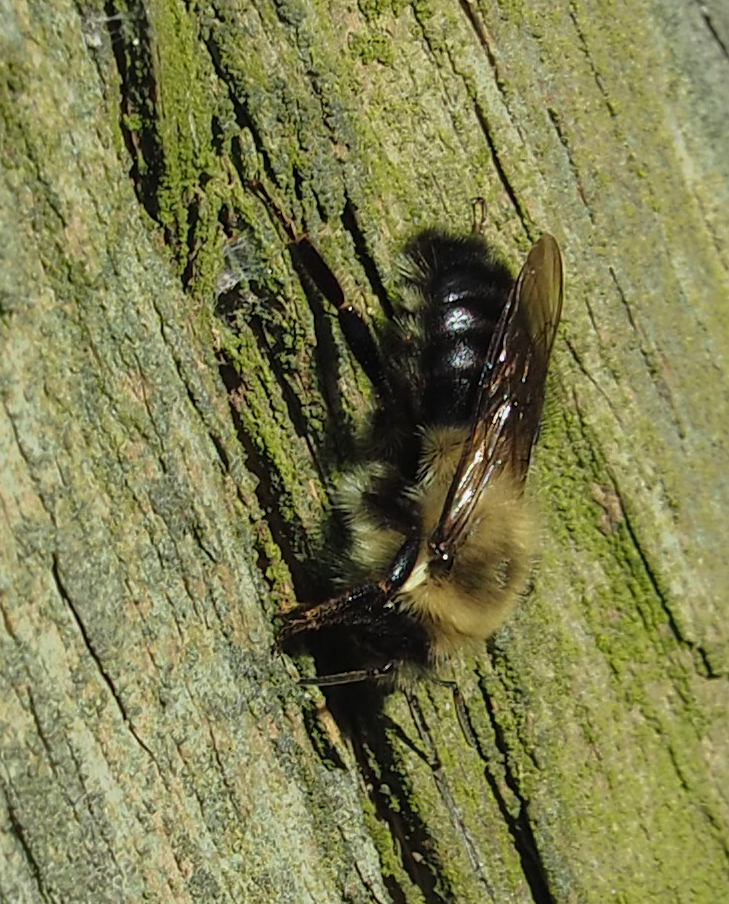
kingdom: Animalia
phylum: Arthropoda
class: Insecta
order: Hymenoptera
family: Apidae
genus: Bombus
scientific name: Bombus impatiens
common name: Common eastern bumble bee
